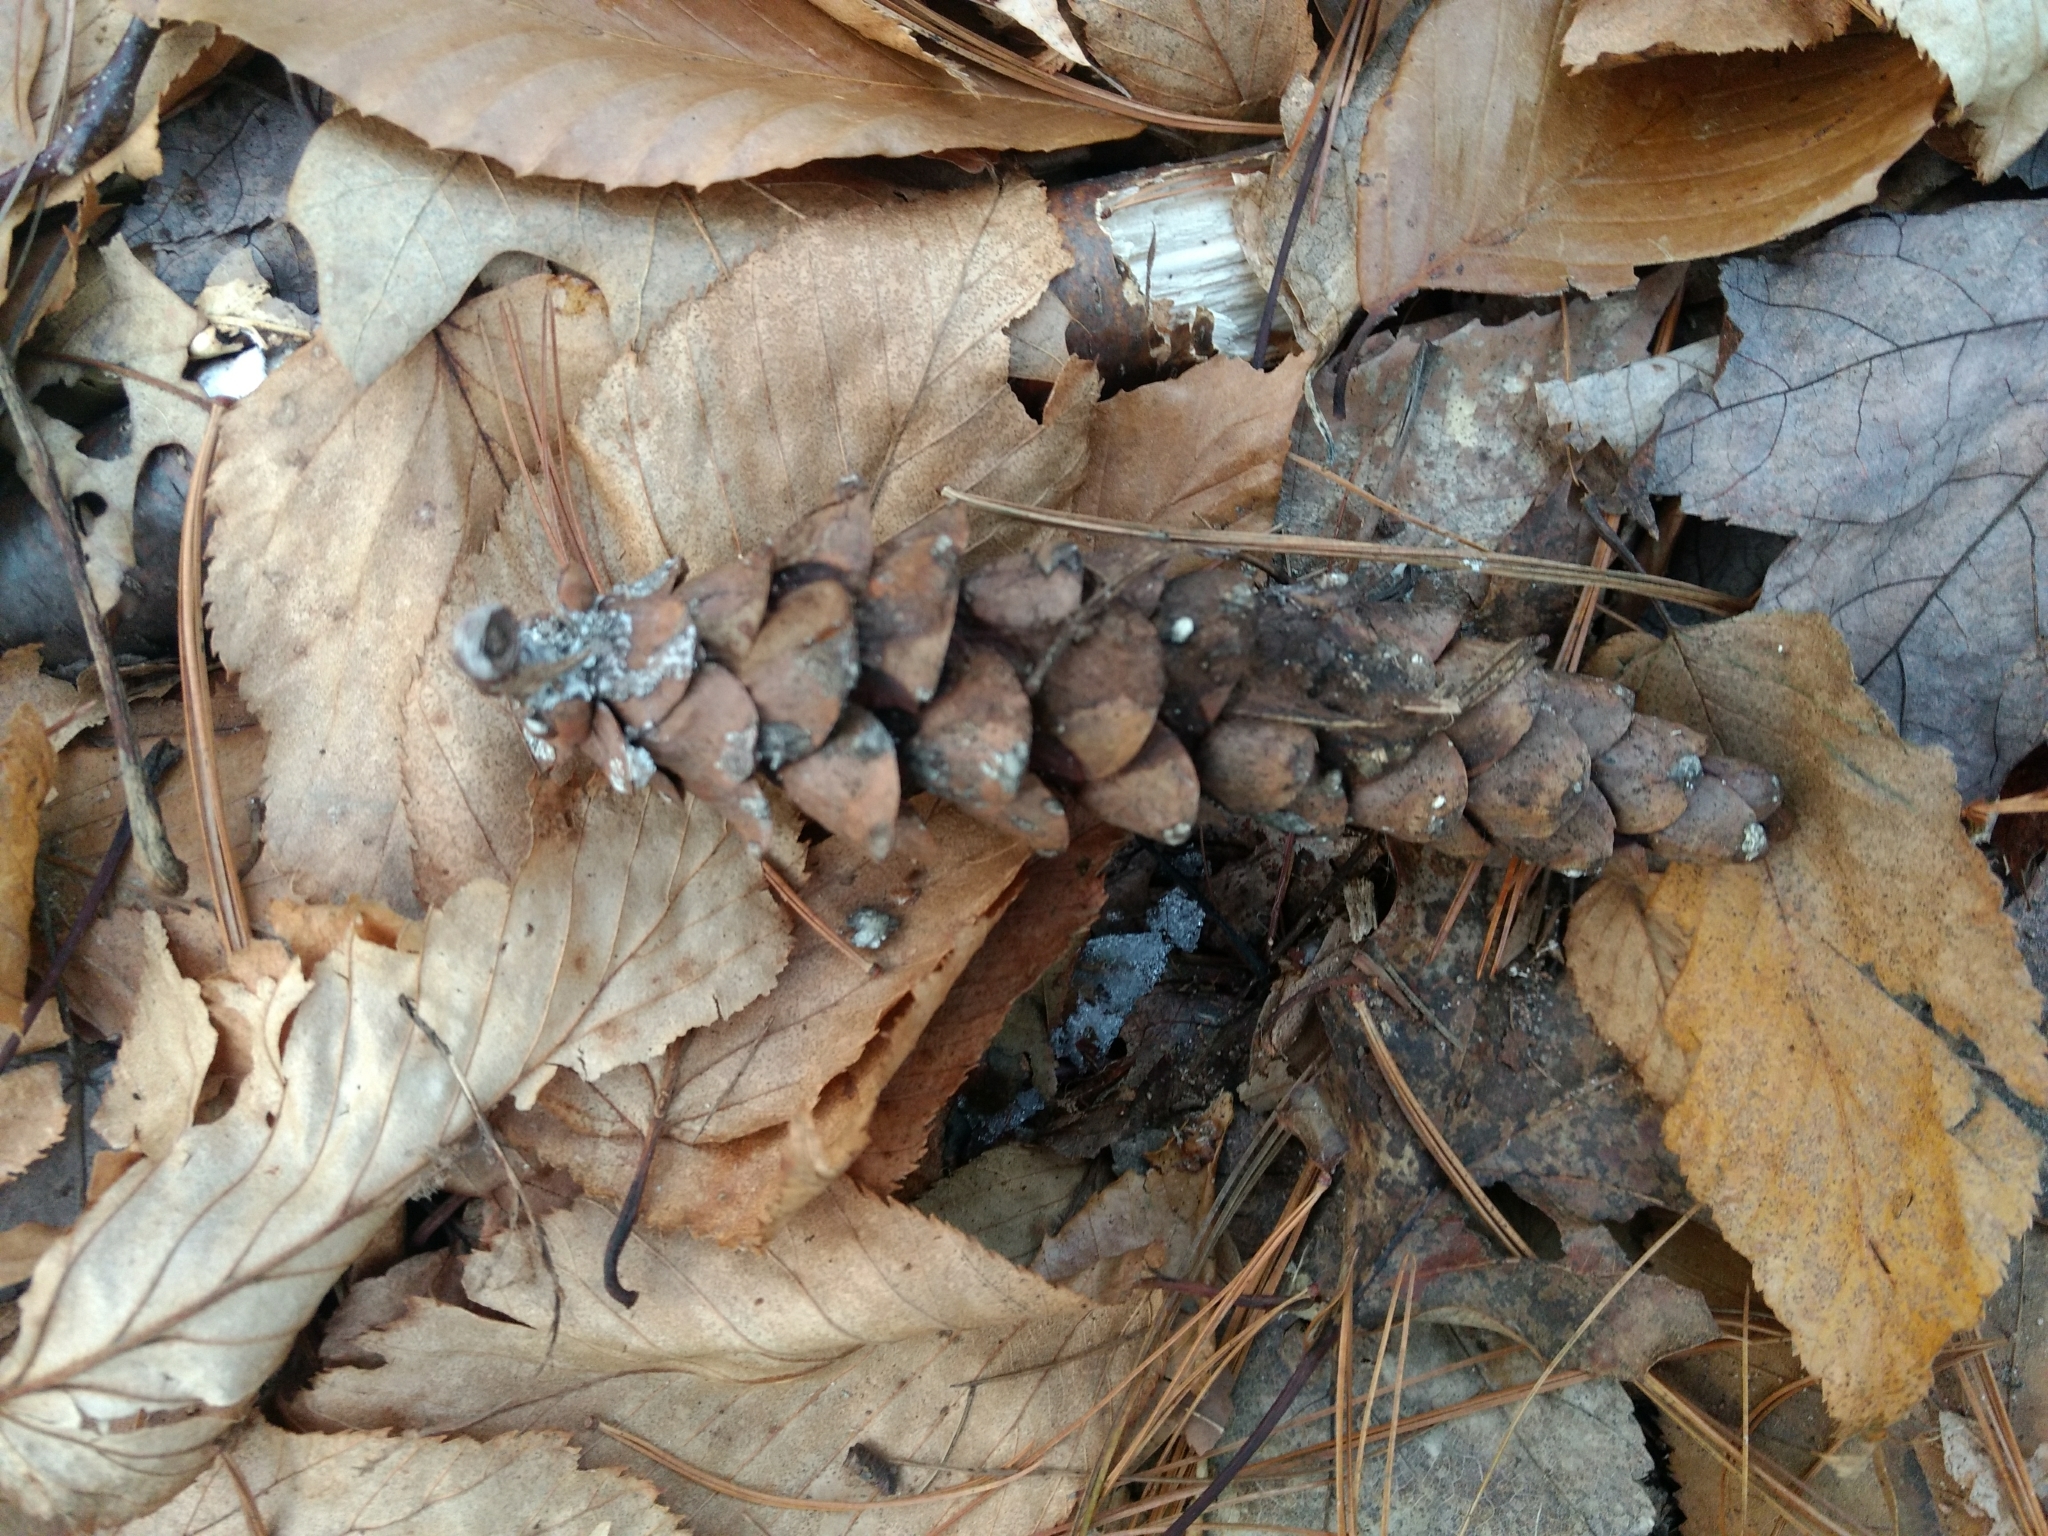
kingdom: Plantae
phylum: Tracheophyta
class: Pinopsida
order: Pinales
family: Pinaceae
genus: Pinus
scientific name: Pinus strobus
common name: Weymouth pine
